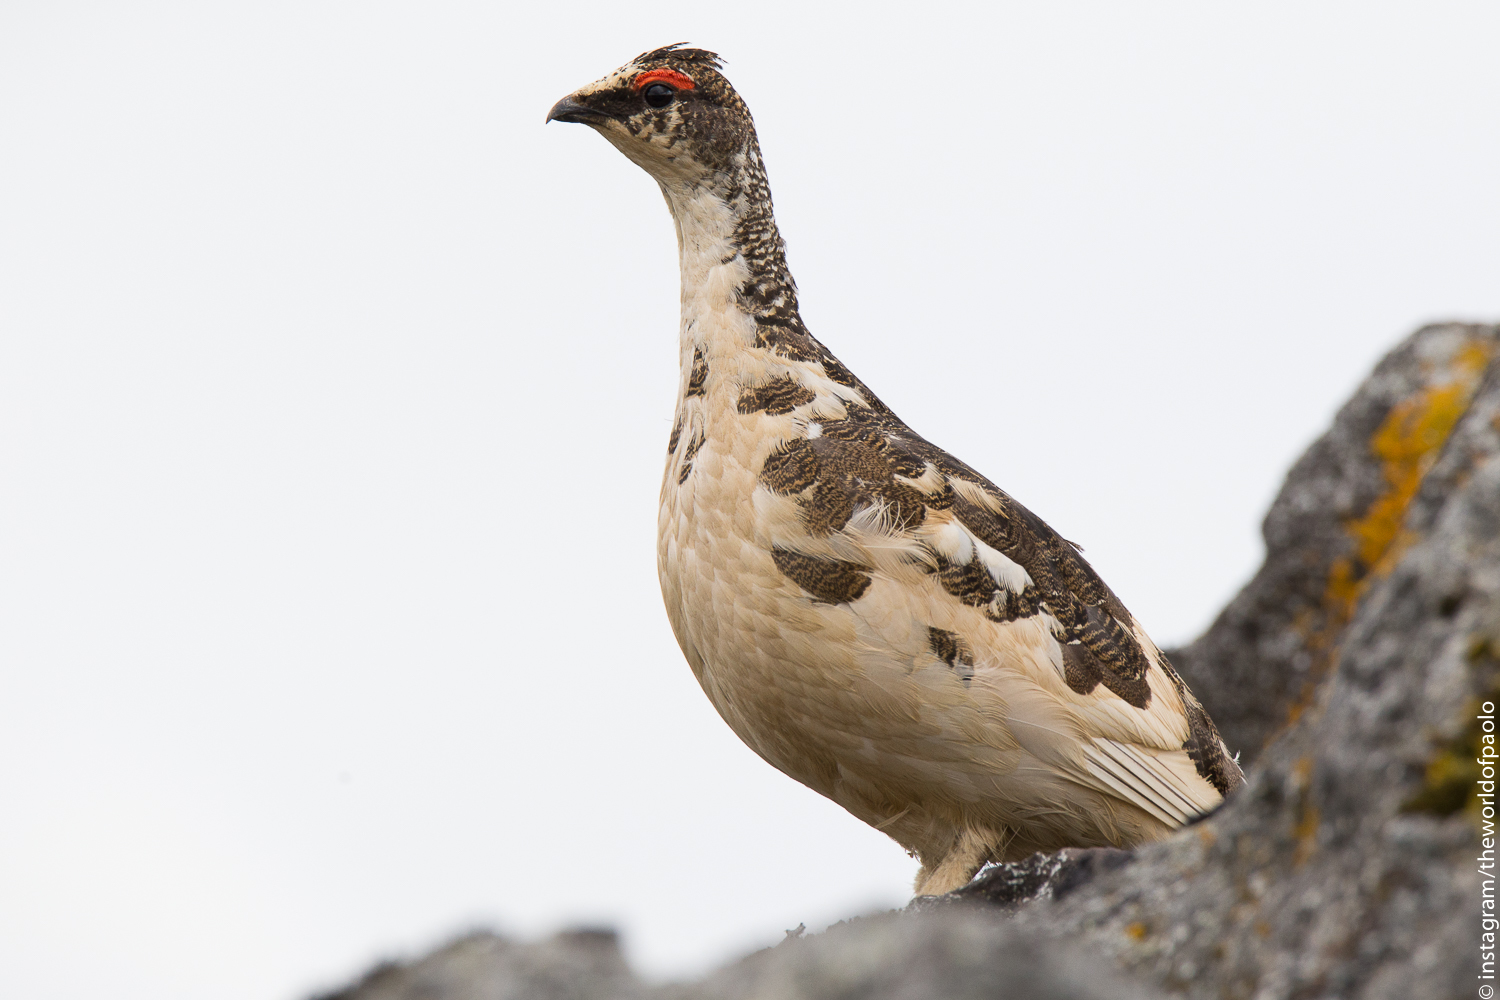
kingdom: Animalia
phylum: Chordata
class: Aves
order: Galliformes
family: Phasianidae
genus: Lagopus
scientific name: Lagopus muta
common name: Rock ptarmigan
